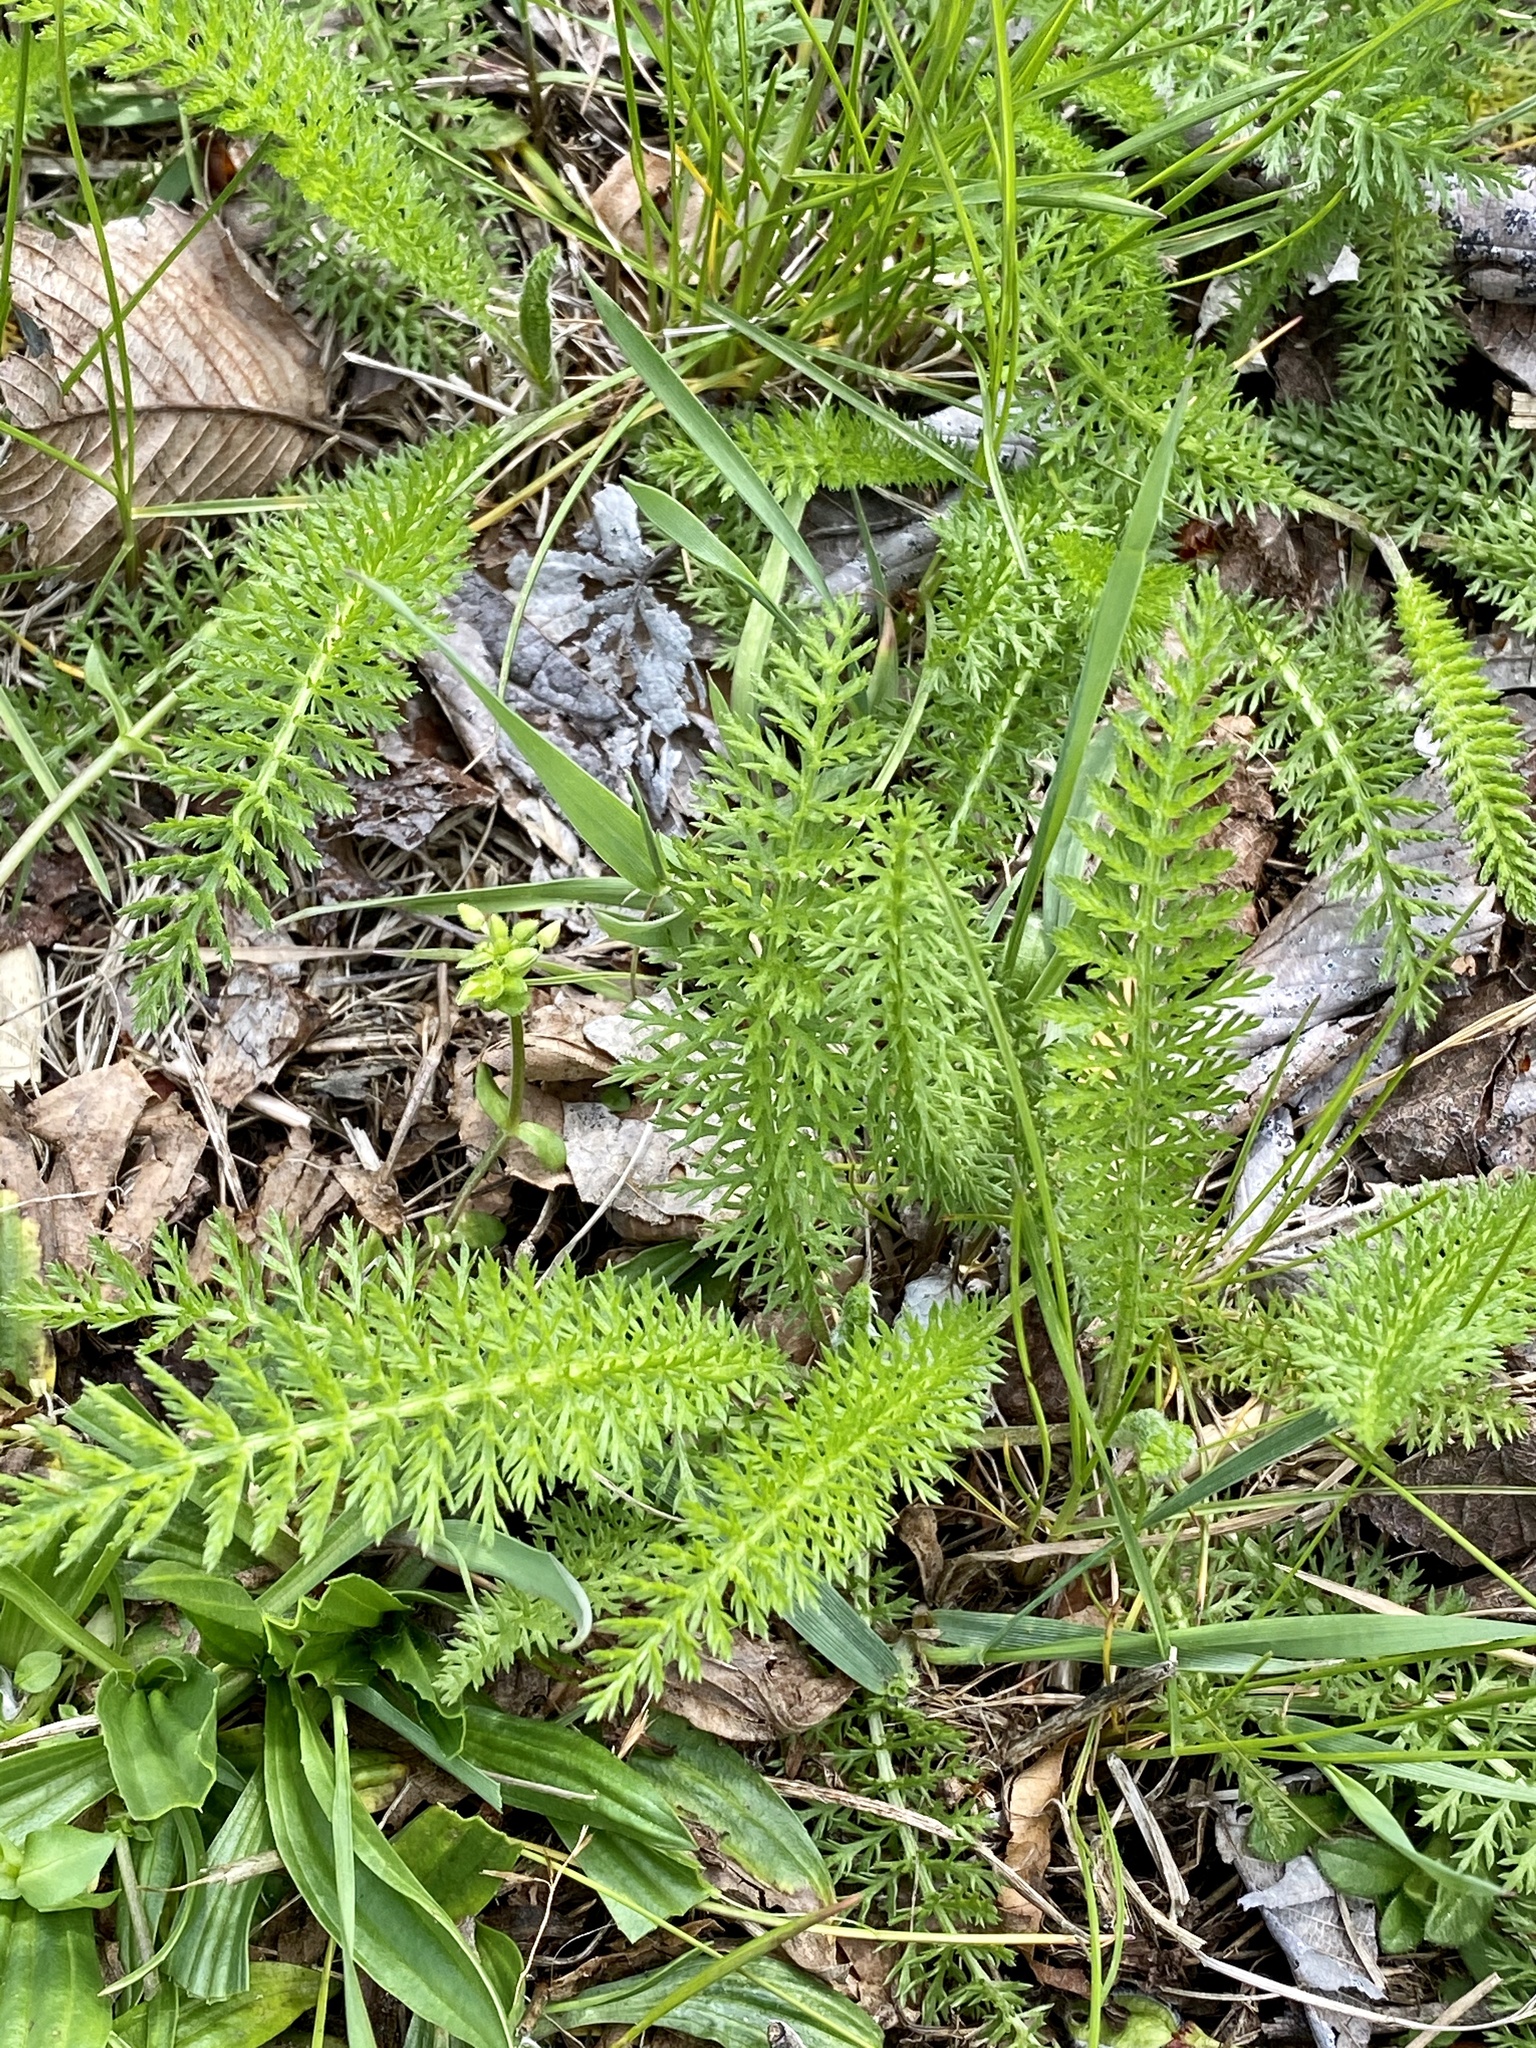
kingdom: Plantae
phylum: Tracheophyta
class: Magnoliopsida
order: Asterales
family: Asteraceae
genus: Achillea
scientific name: Achillea millefolium
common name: Yarrow
